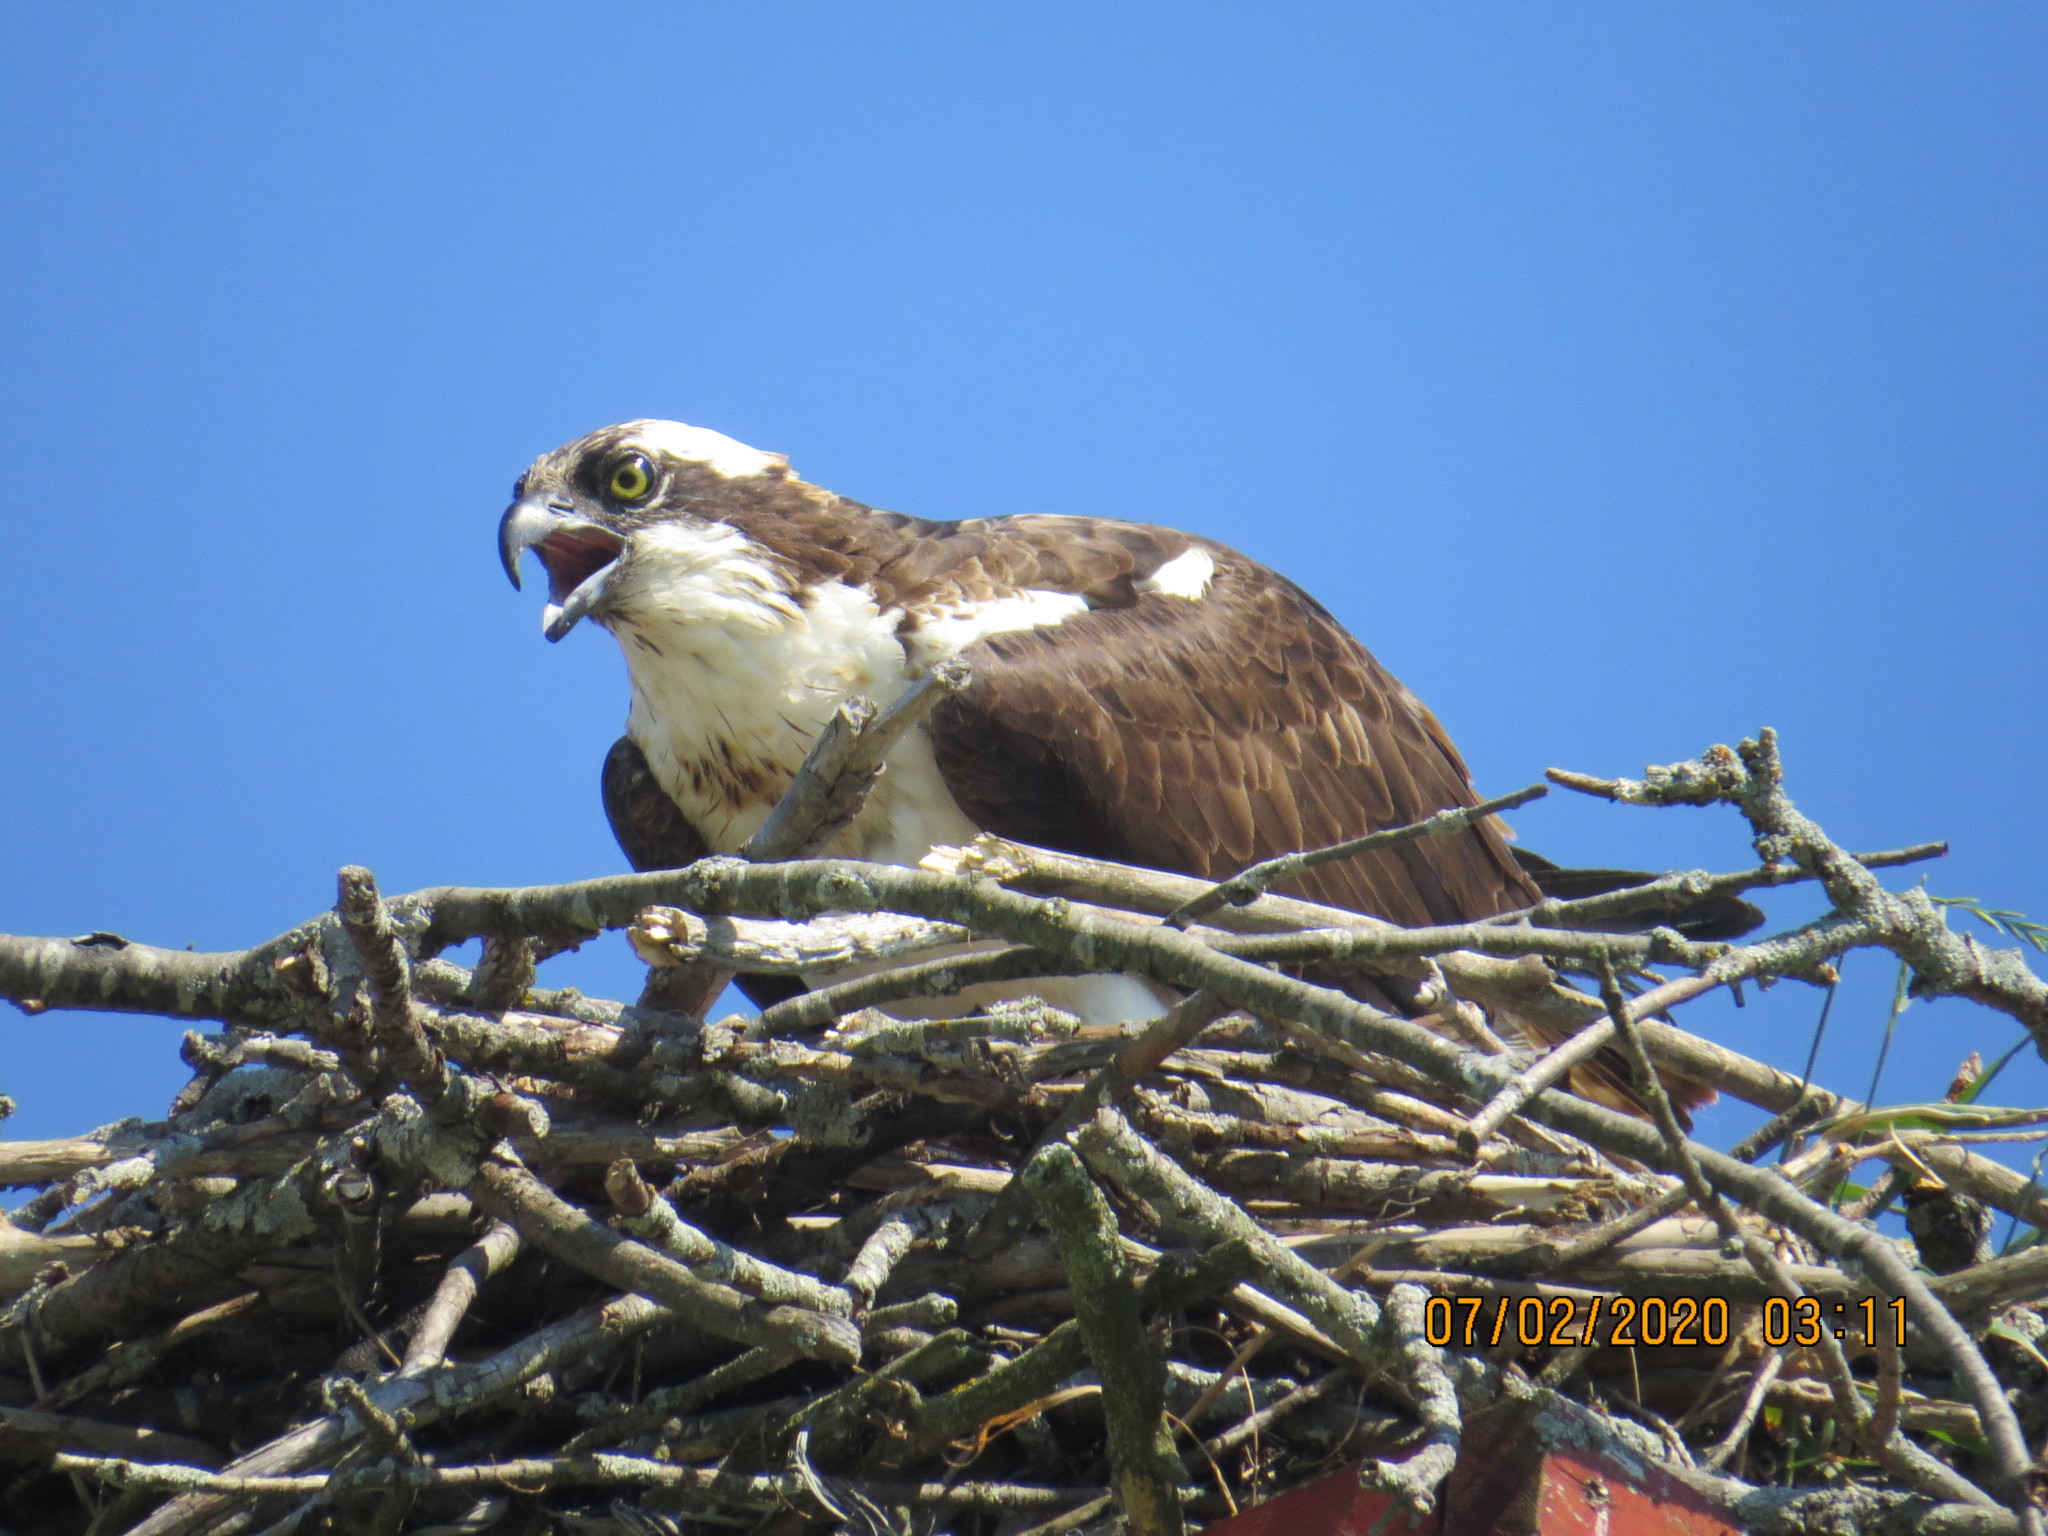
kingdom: Animalia
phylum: Chordata
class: Aves
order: Accipitriformes
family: Pandionidae
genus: Pandion
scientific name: Pandion haliaetus
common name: Osprey
